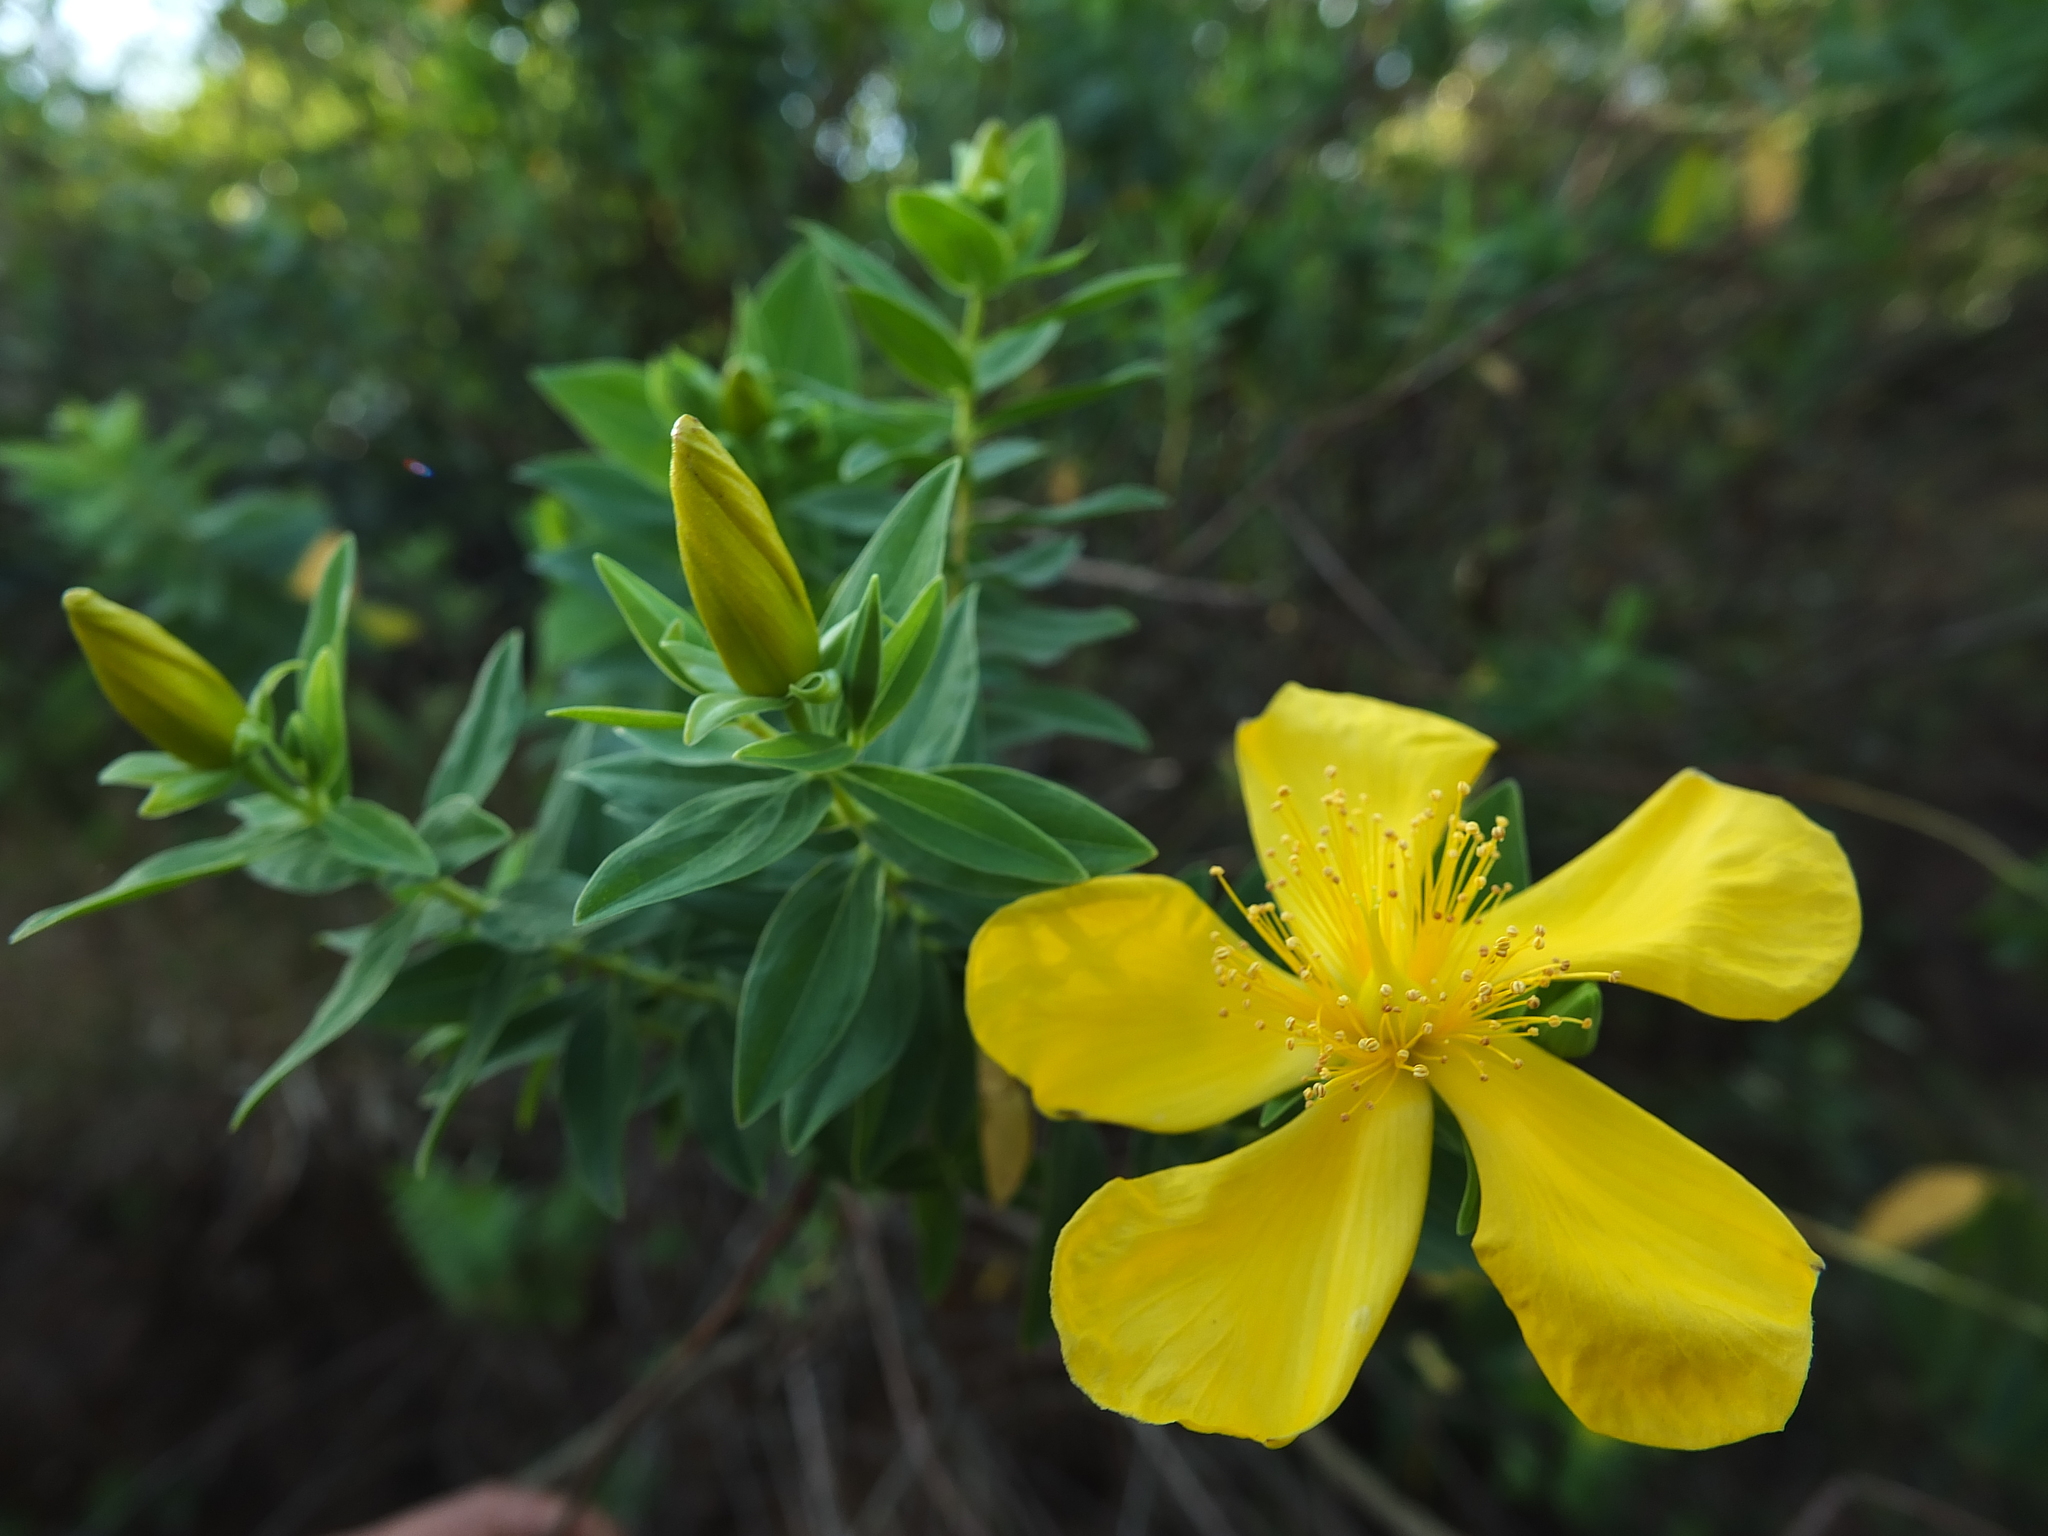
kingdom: Plantae
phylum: Tracheophyta
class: Magnoliopsida
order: Malpighiales
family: Hypericaceae
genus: Hypericum
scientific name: Hypericum mysurense
